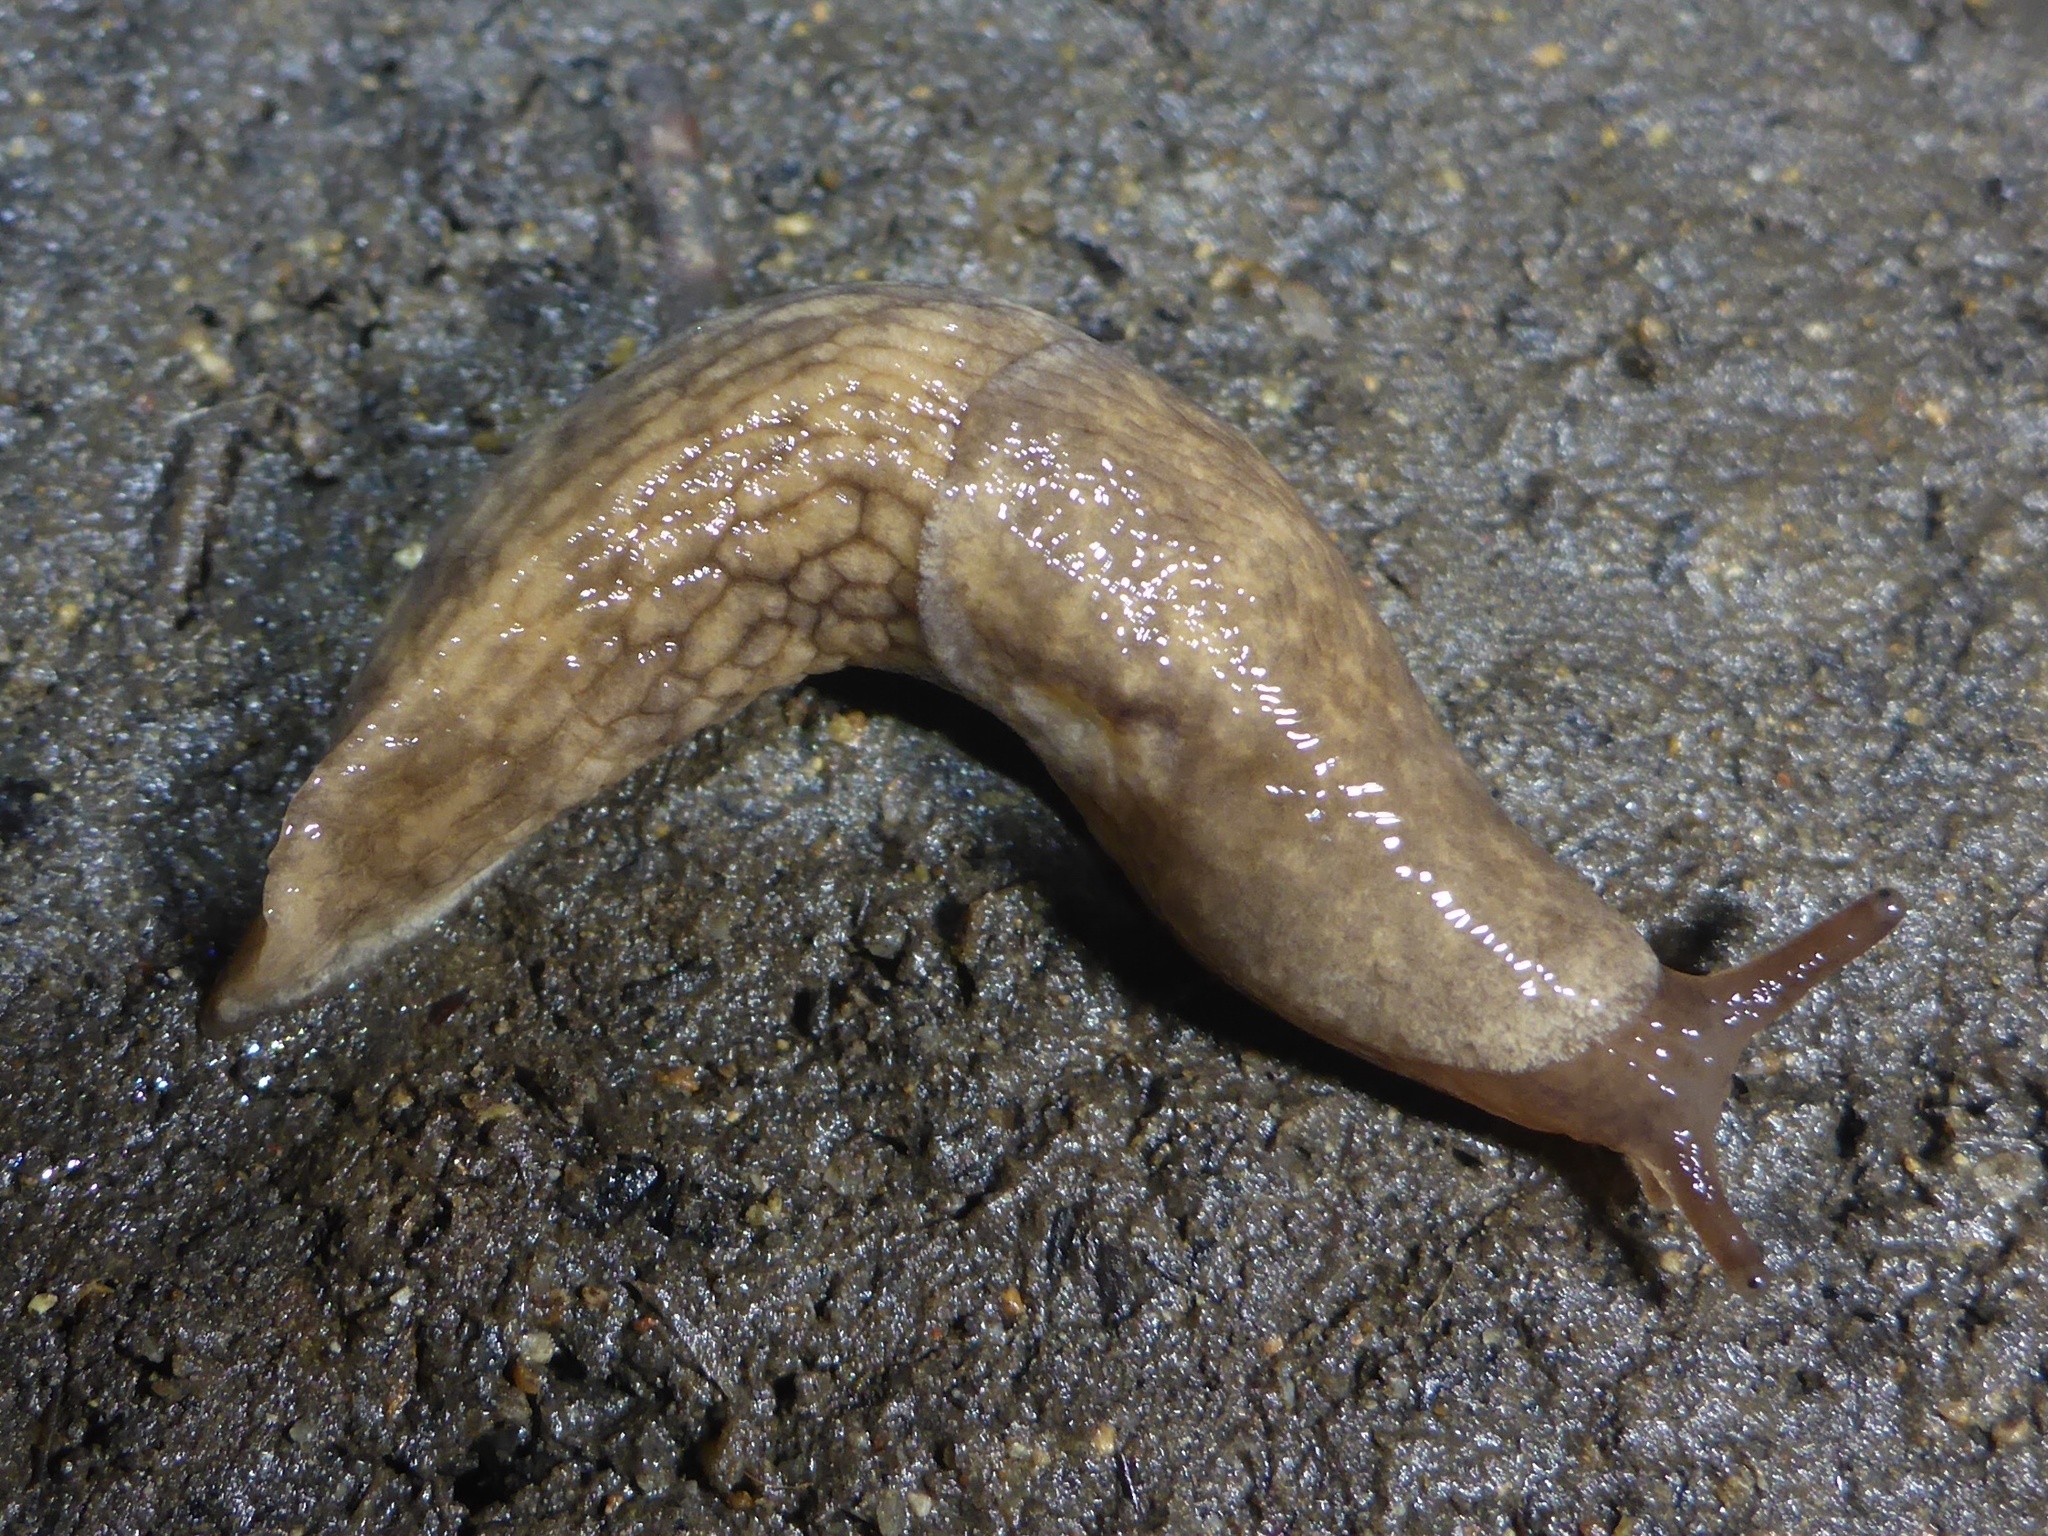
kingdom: Animalia
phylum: Mollusca
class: Gastropoda
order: Stylommatophora
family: Agriolimacidae
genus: Deroceras
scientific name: Deroceras reticulatum
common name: Gray field slug
